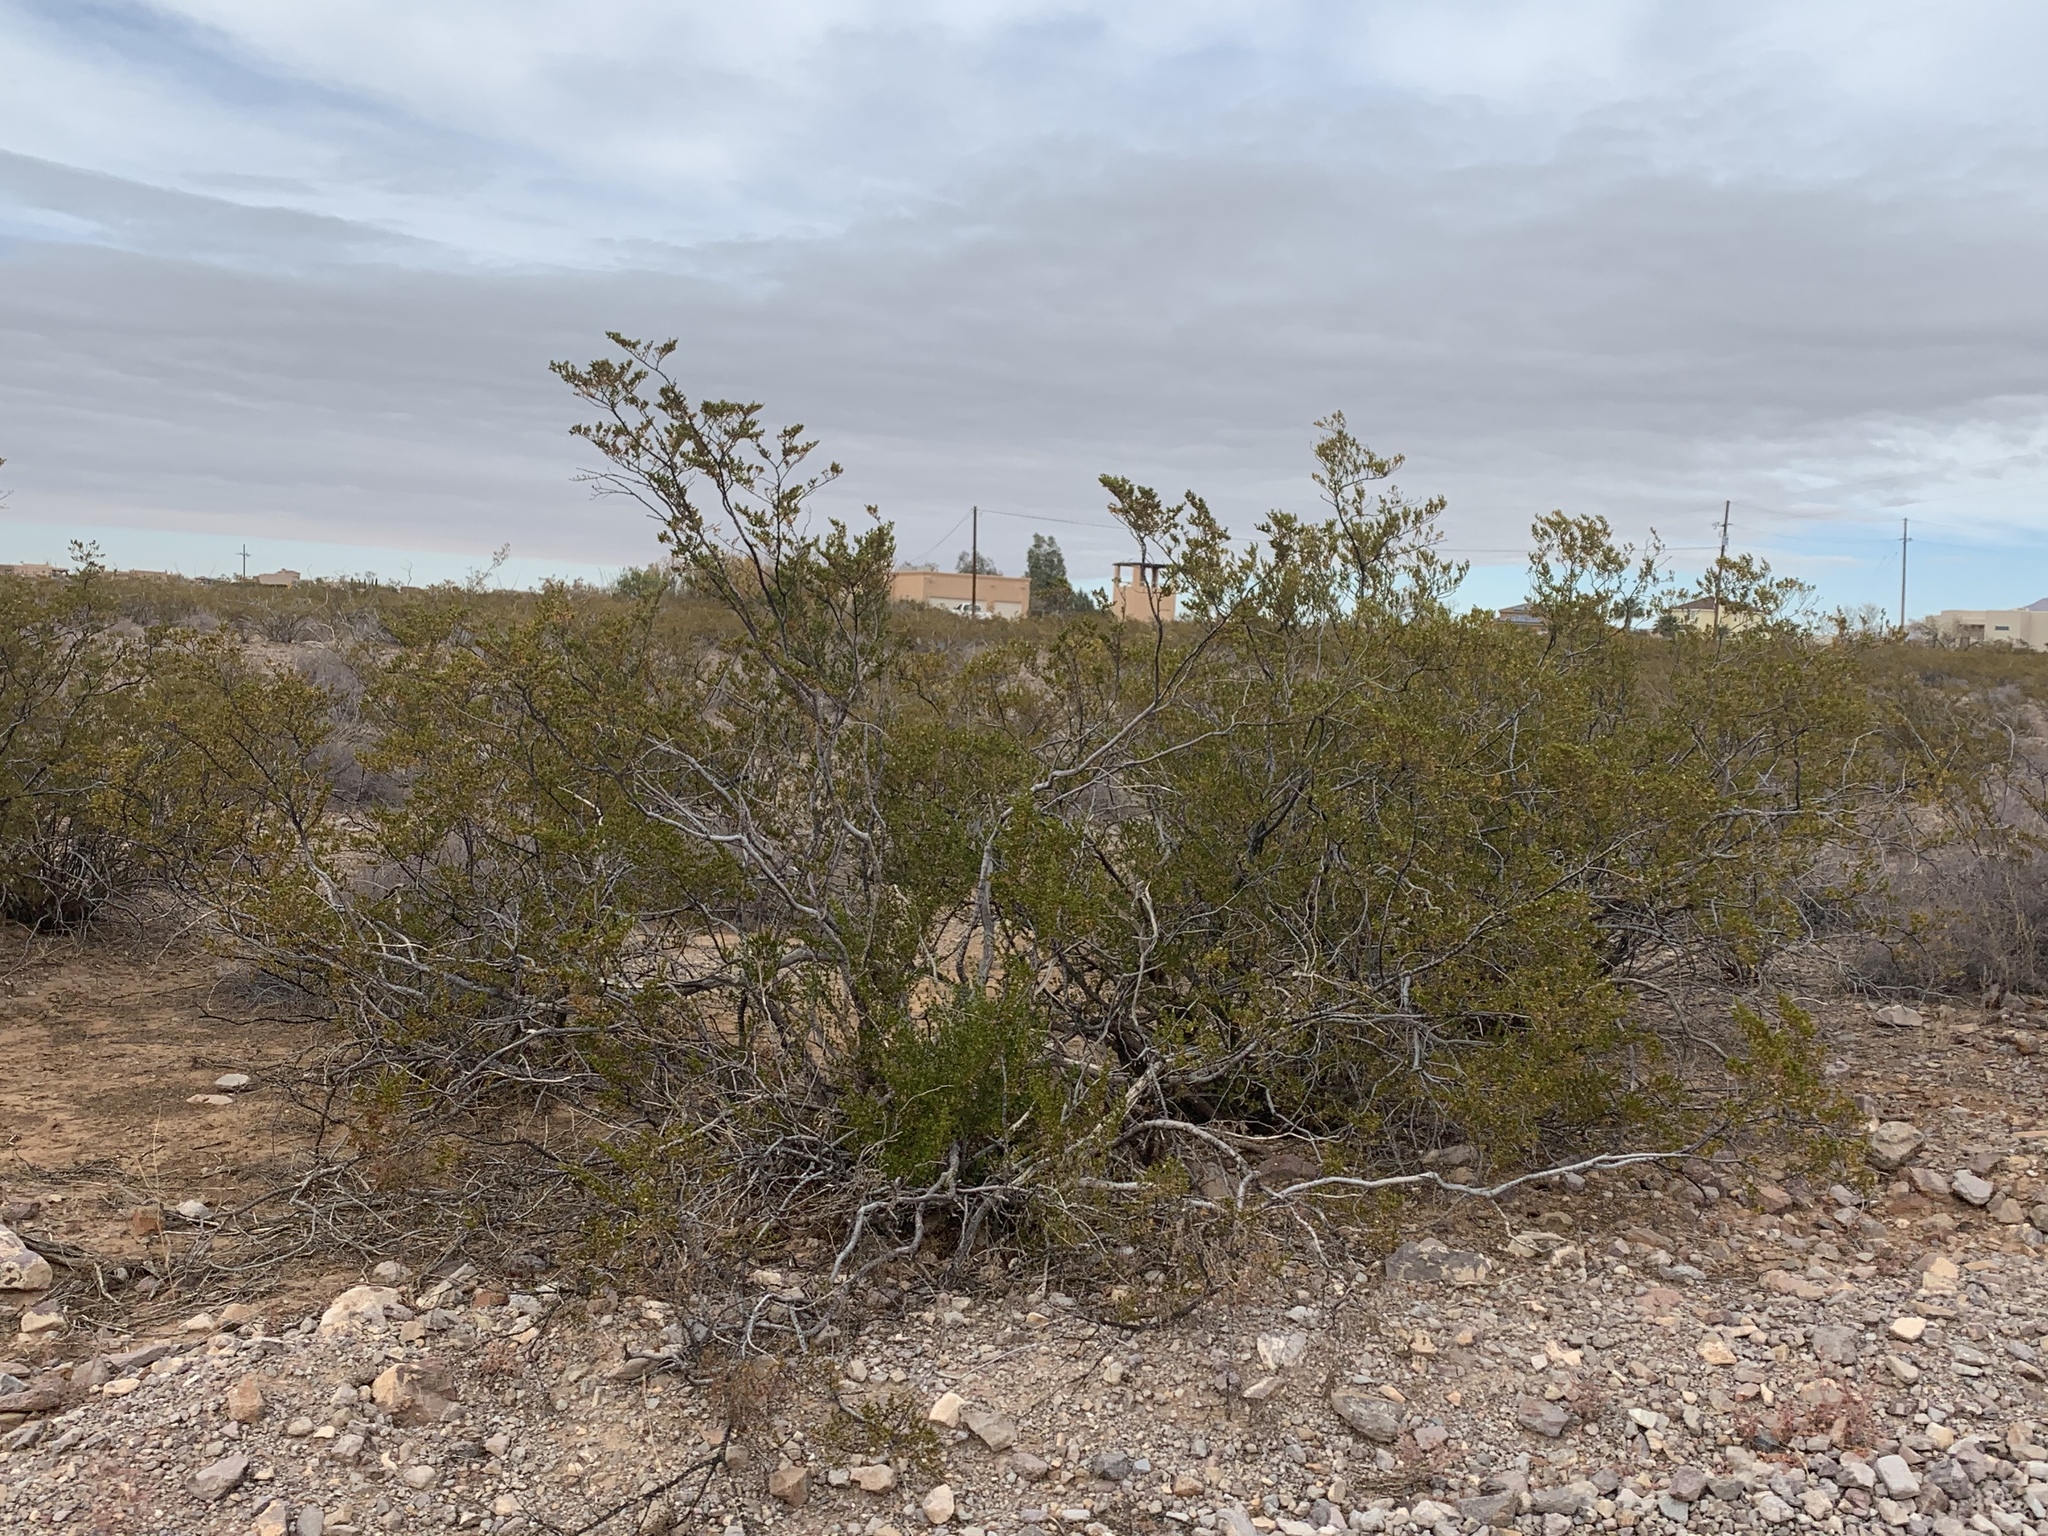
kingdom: Plantae
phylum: Tracheophyta
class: Magnoliopsida
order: Zygophyllales
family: Zygophyllaceae
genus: Larrea
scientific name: Larrea tridentata
